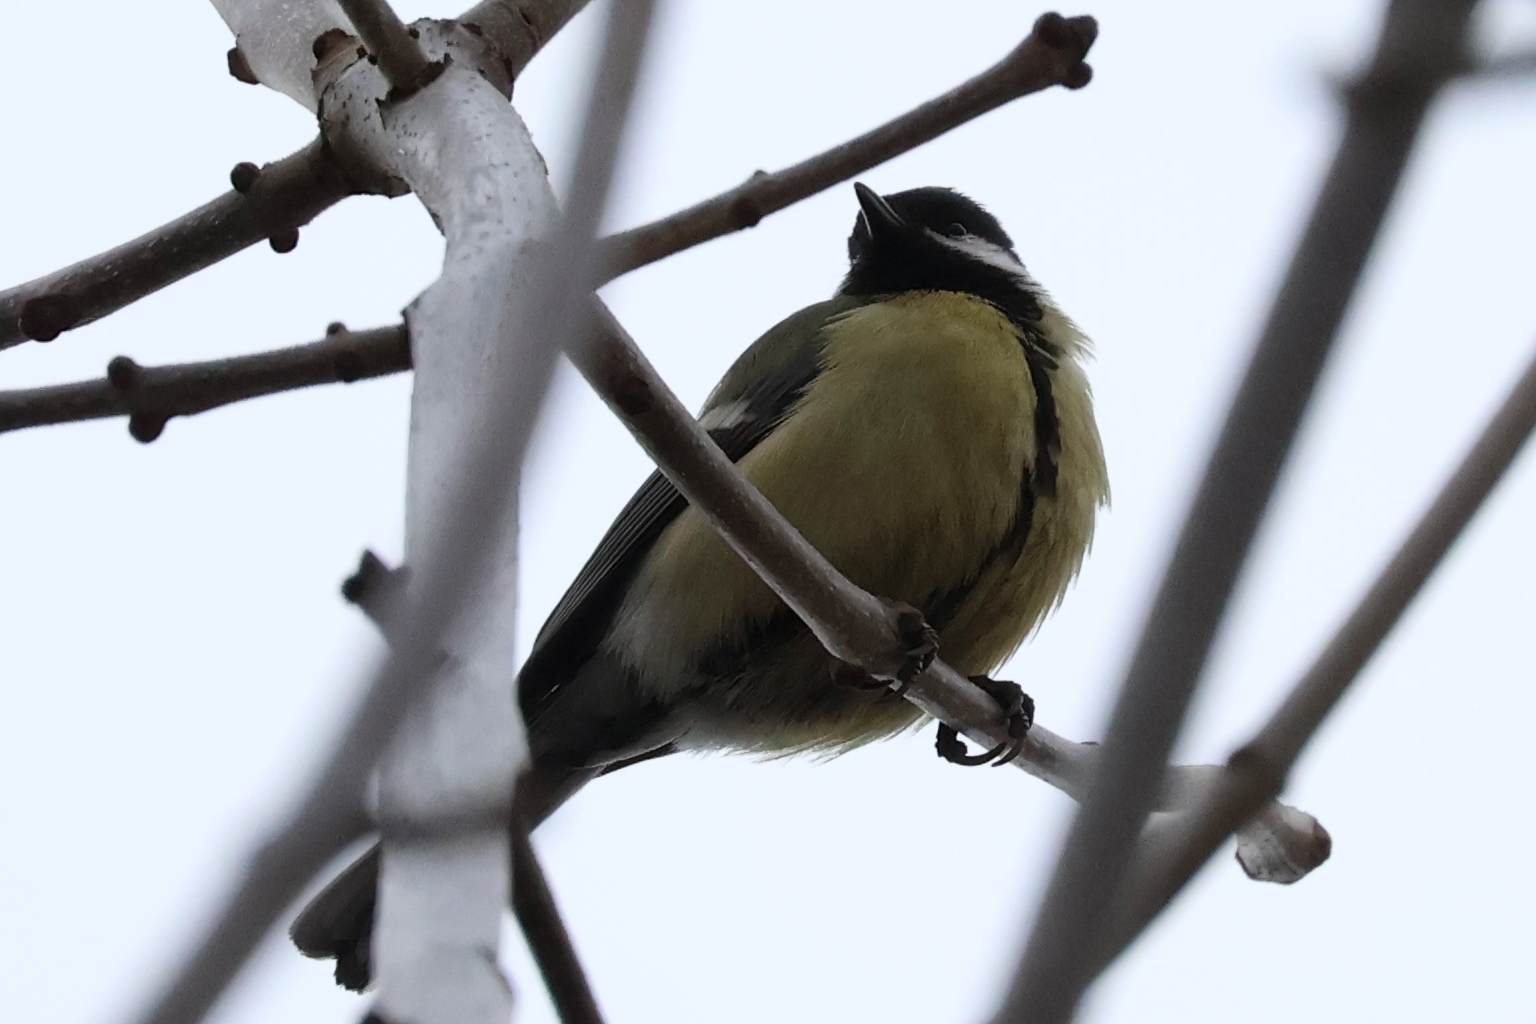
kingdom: Animalia
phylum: Chordata
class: Aves
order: Passeriformes
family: Paridae
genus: Parus
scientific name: Parus major
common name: Great tit
